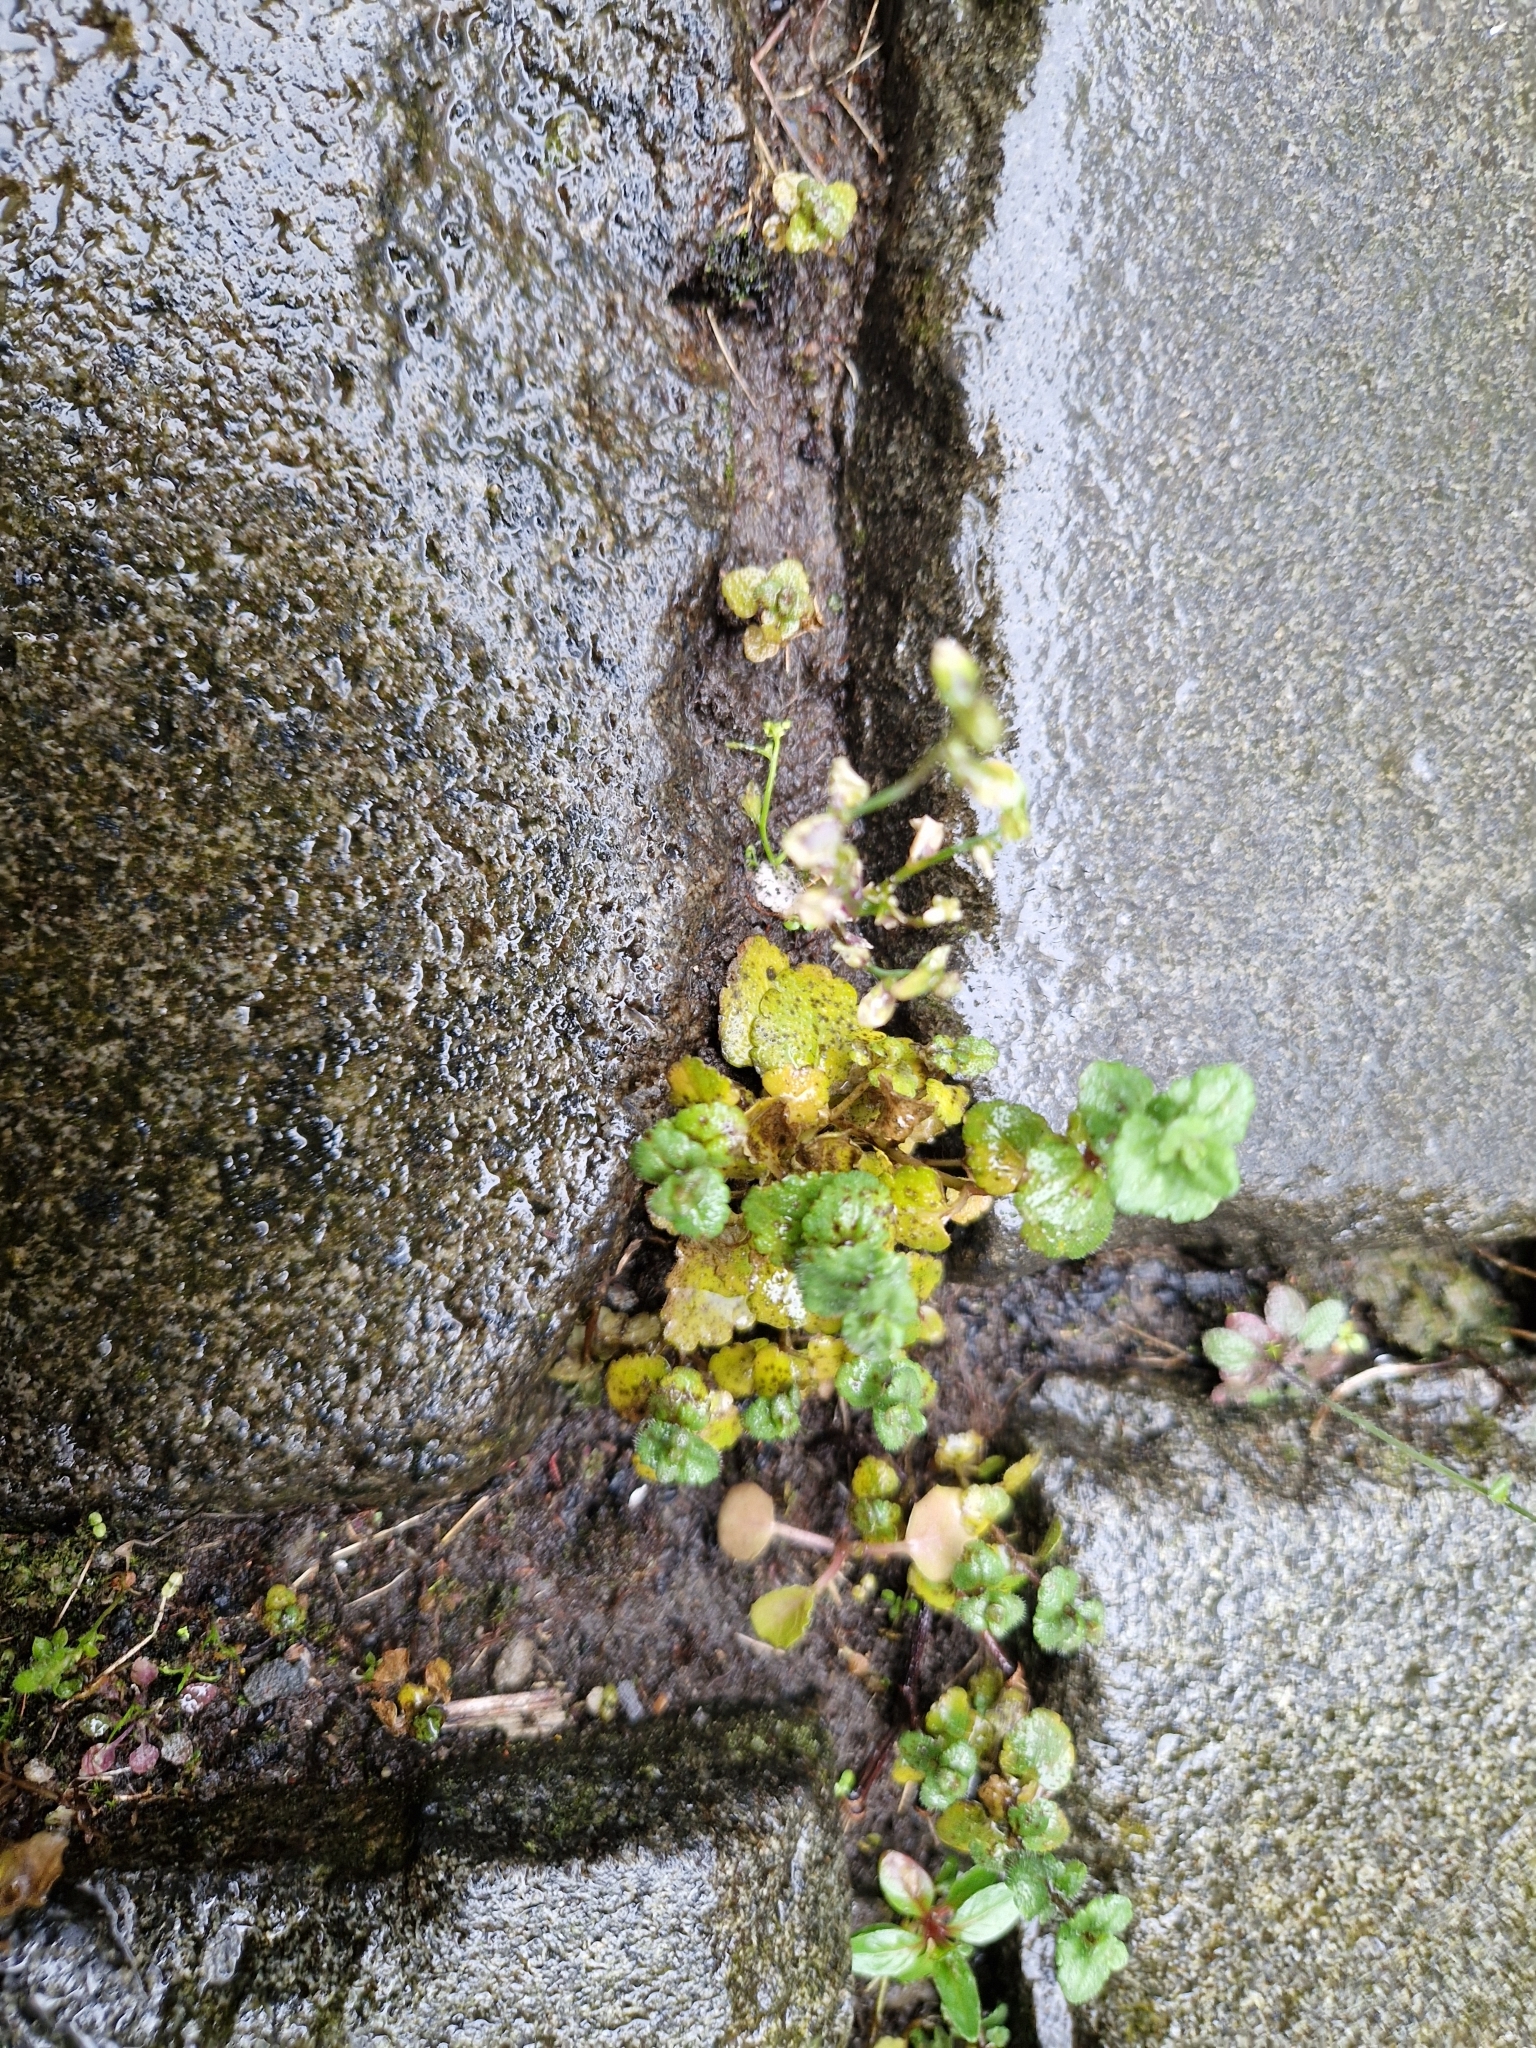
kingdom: Fungi
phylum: Ascomycota
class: Dothideomycetes
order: Asterinales
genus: Discogloeum
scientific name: Discogloeum veronicae
